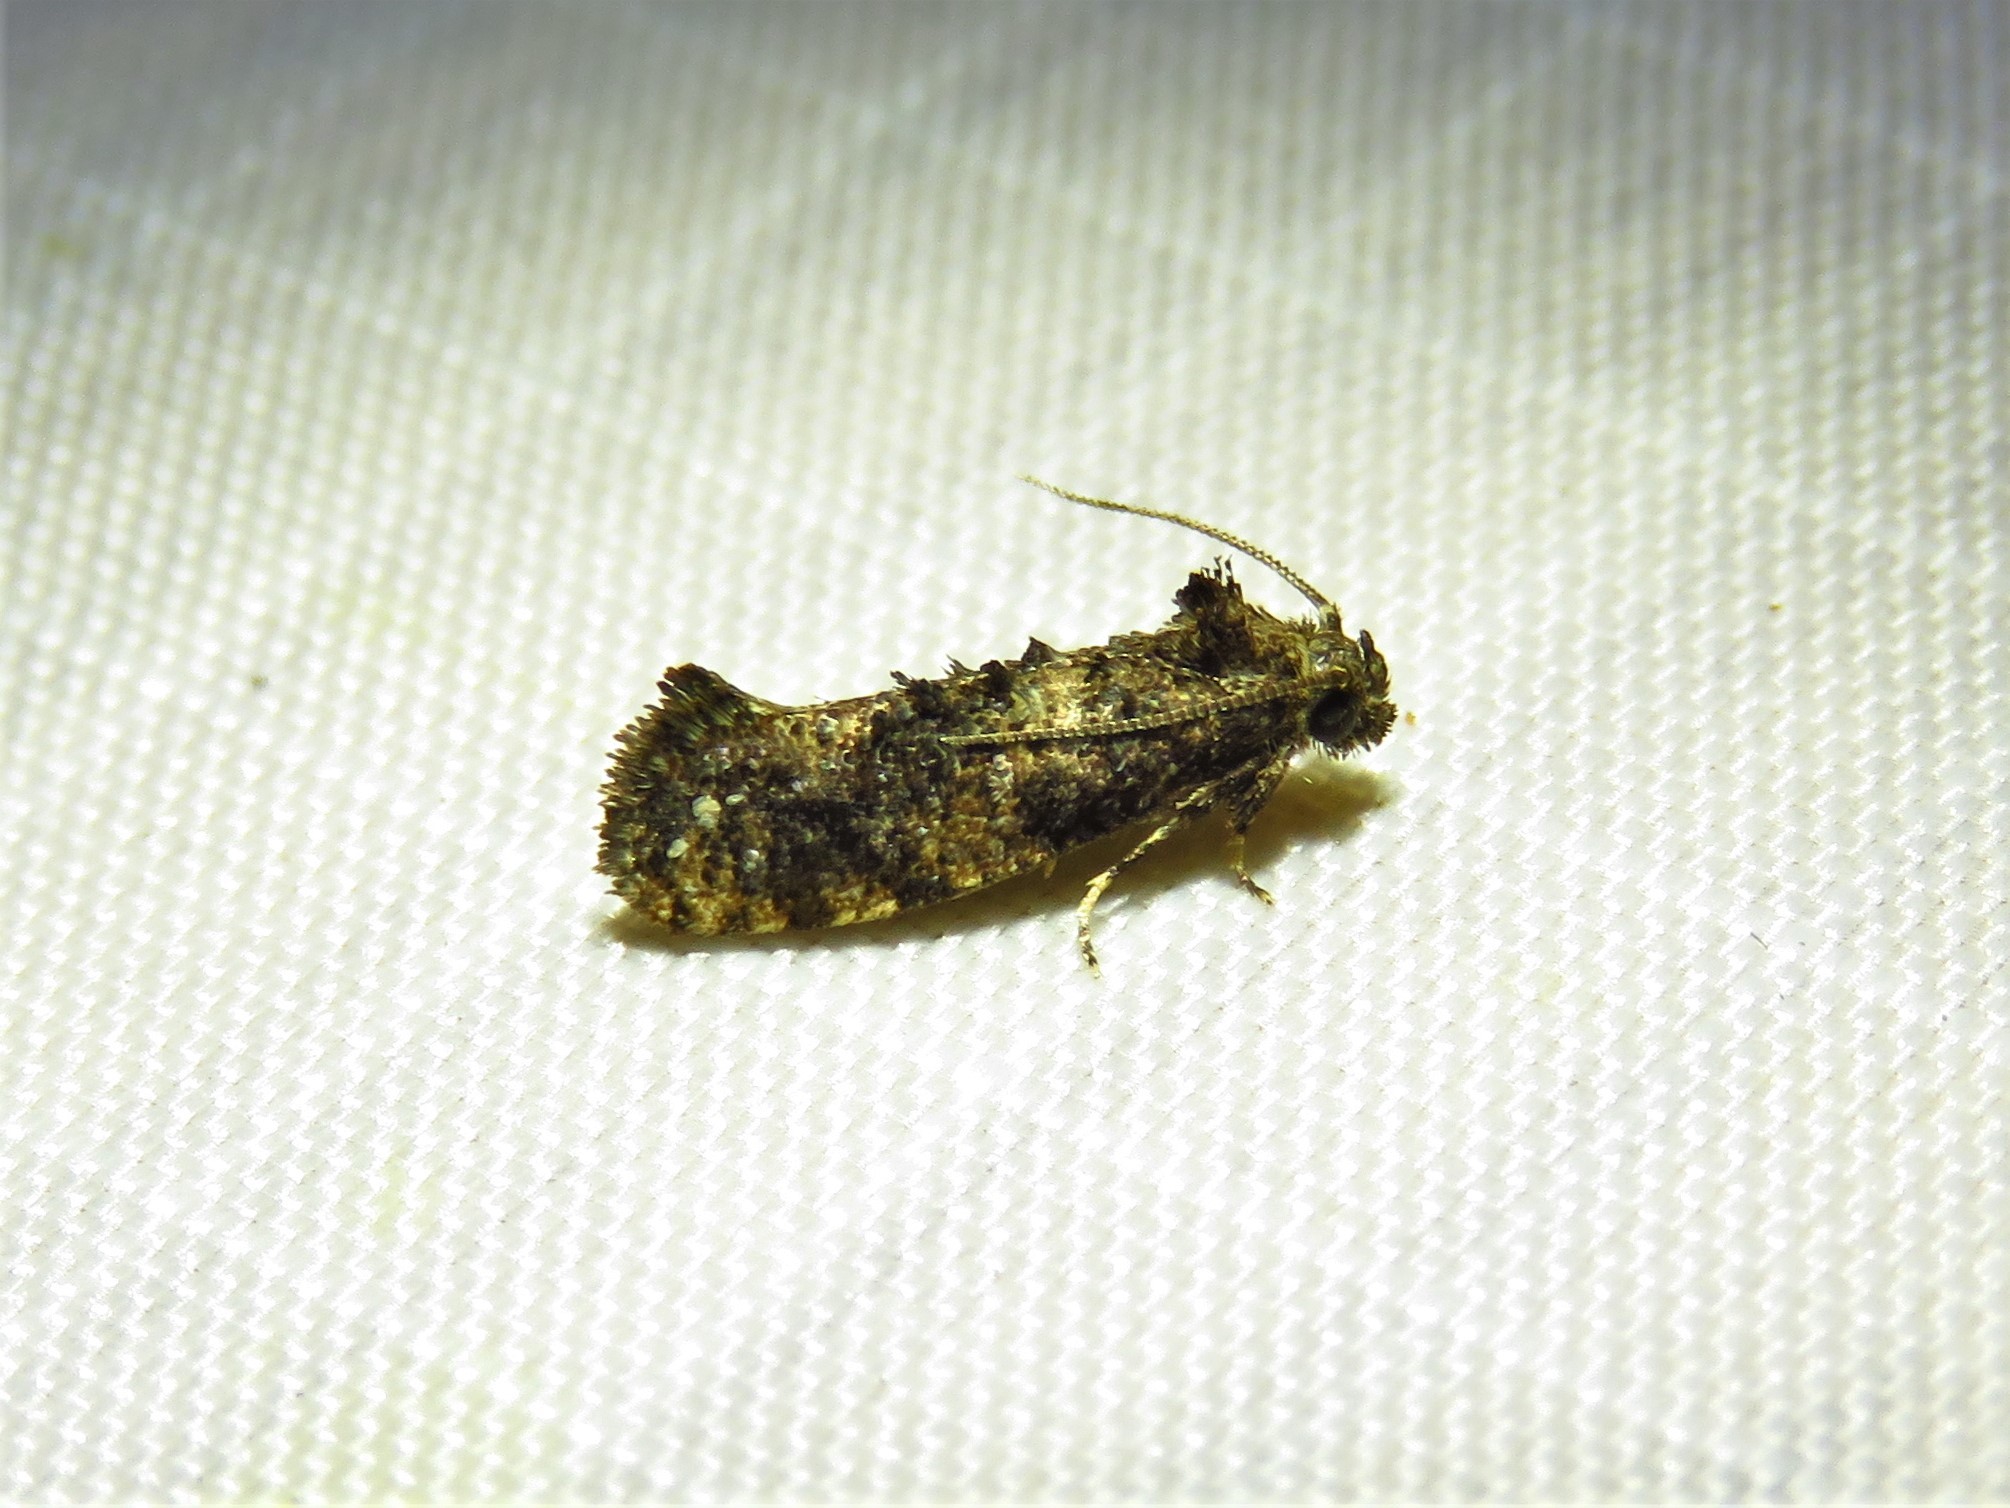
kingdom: Animalia
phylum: Arthropoda
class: Insecta
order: Lepidoptera
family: Tineidae
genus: Acrolophus
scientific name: Acrolophus cressoni
